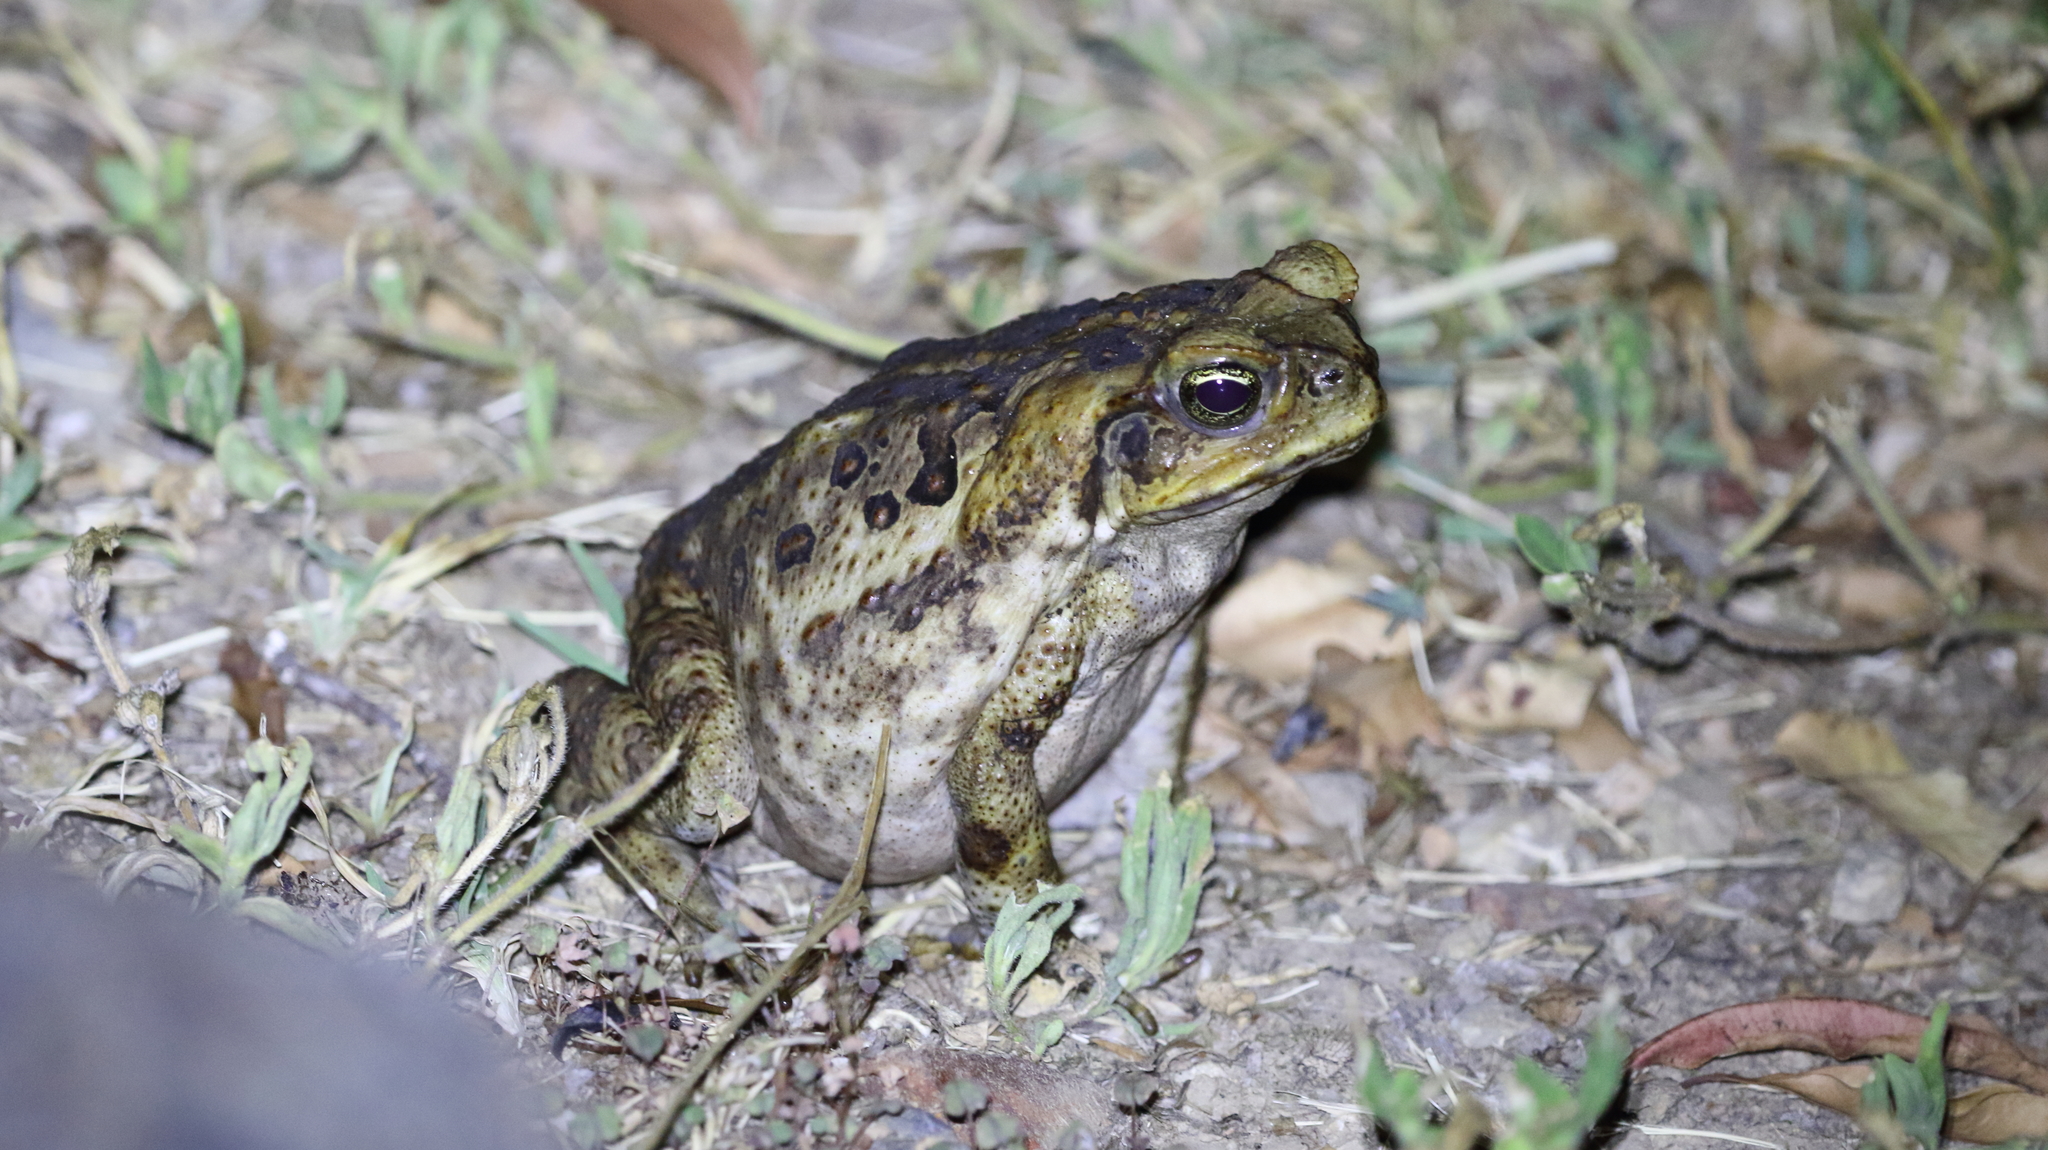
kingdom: Animalia
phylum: Chordata
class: Amphibia
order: Anura
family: Bufonidae
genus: Rhinella
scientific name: Rhinella marina
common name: Cane toad
